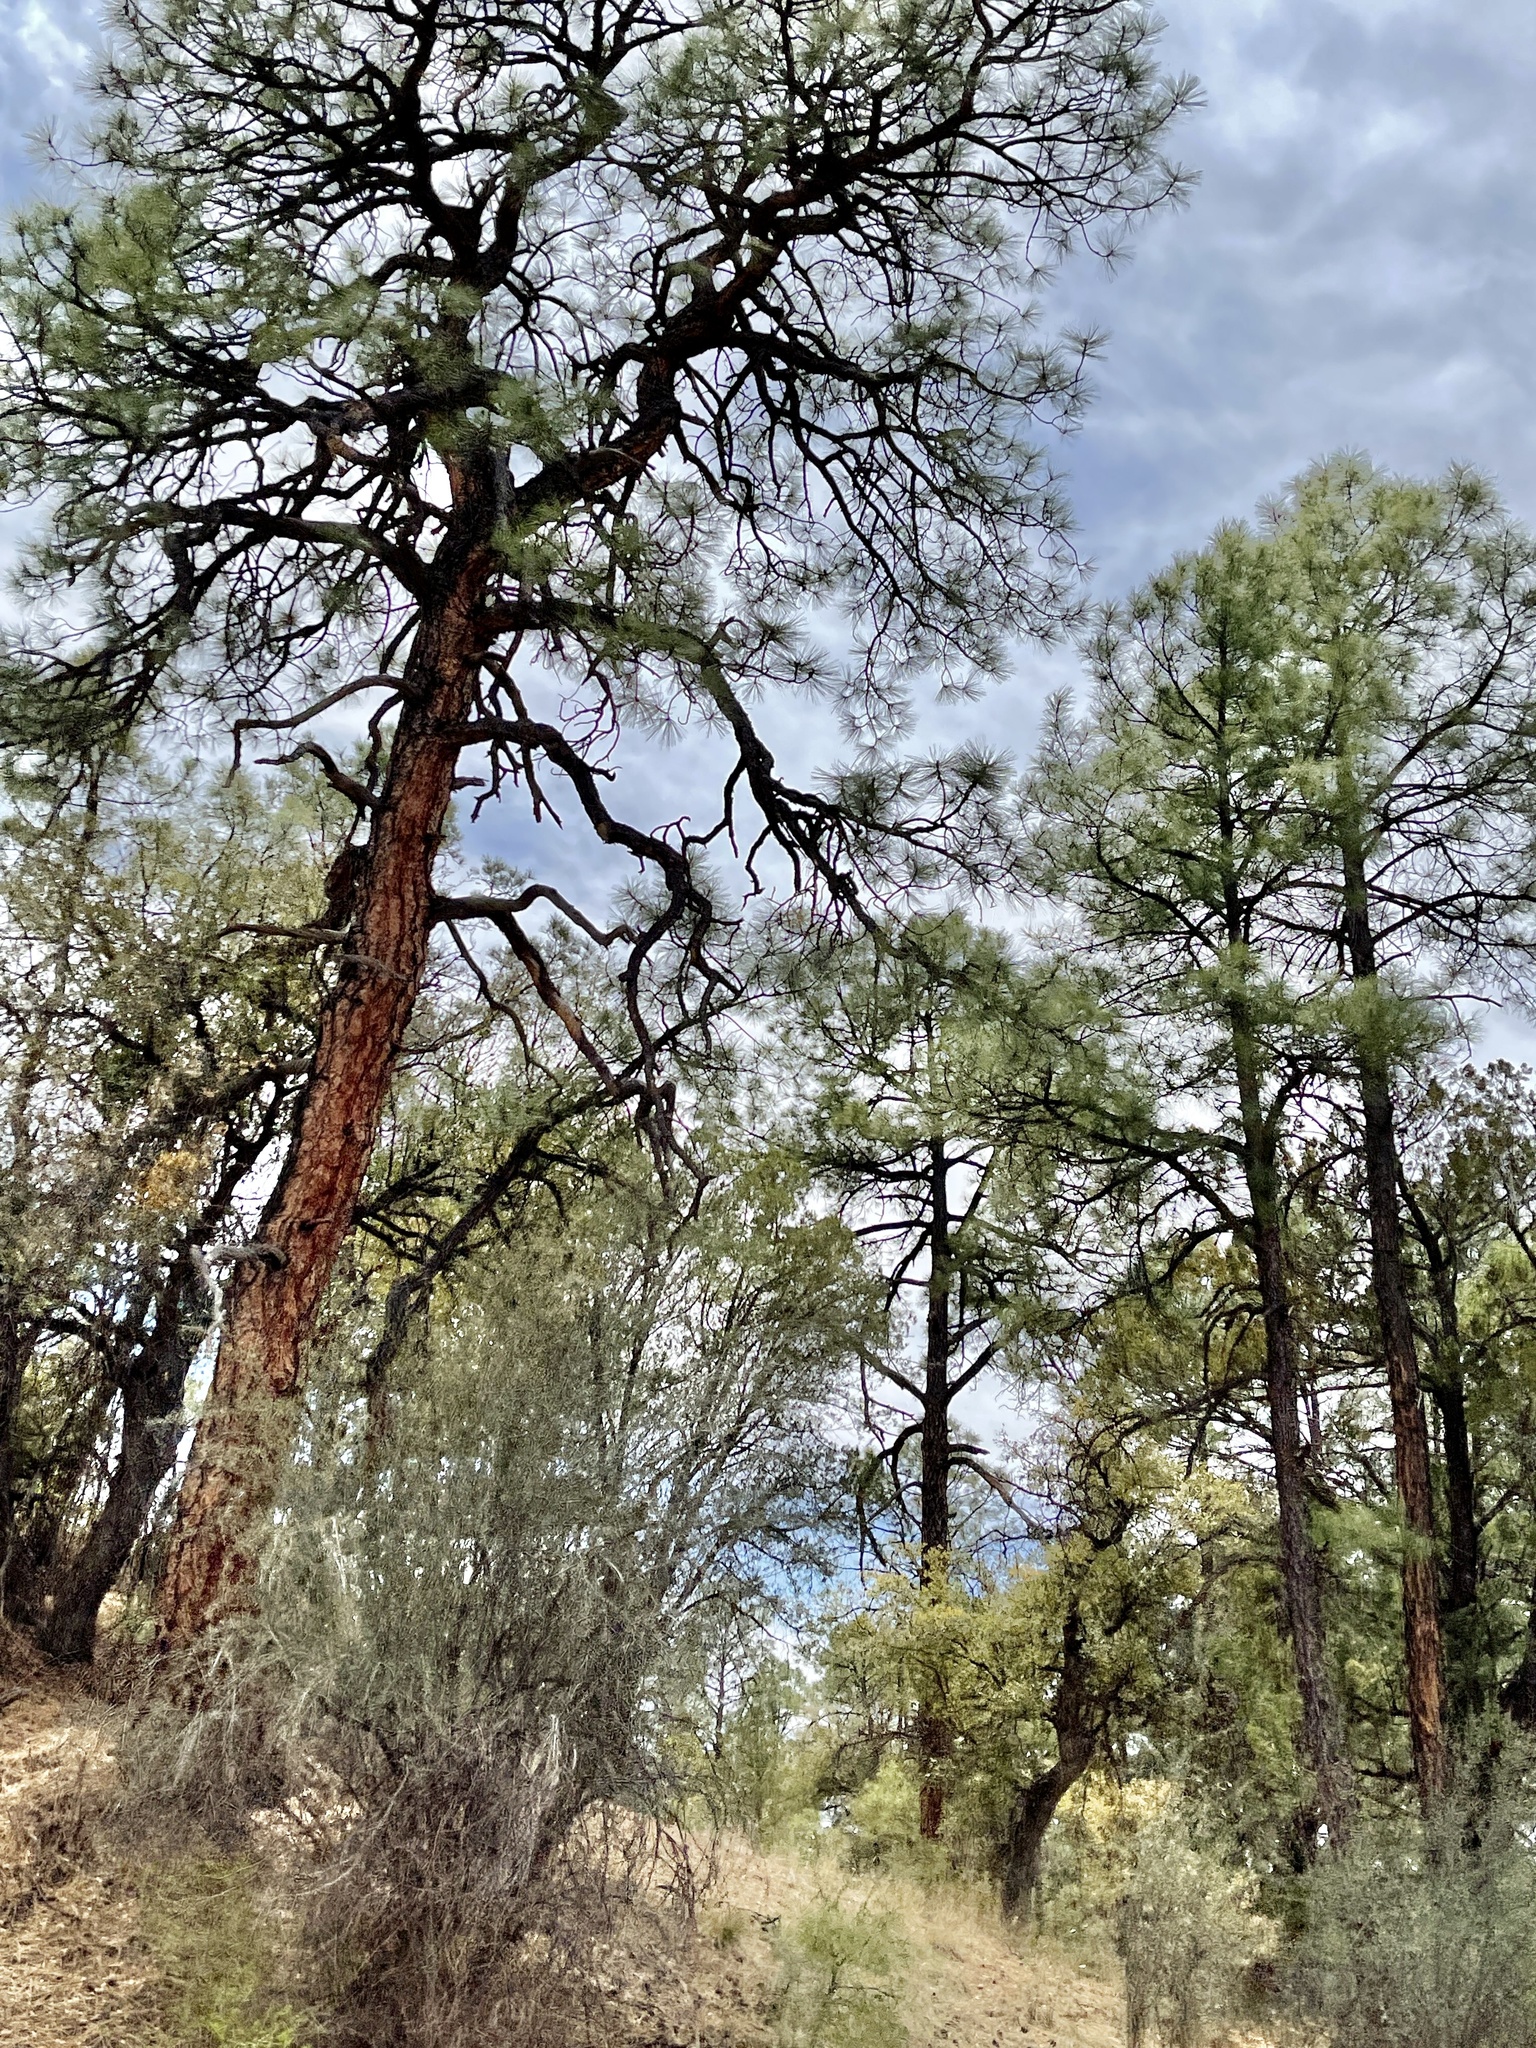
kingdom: Plantae
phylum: Tracheophyta
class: Pinopsida
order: Pinales
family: Pinaceae
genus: Pinus
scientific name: Pinus ponderosa
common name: Western yellow-pine
